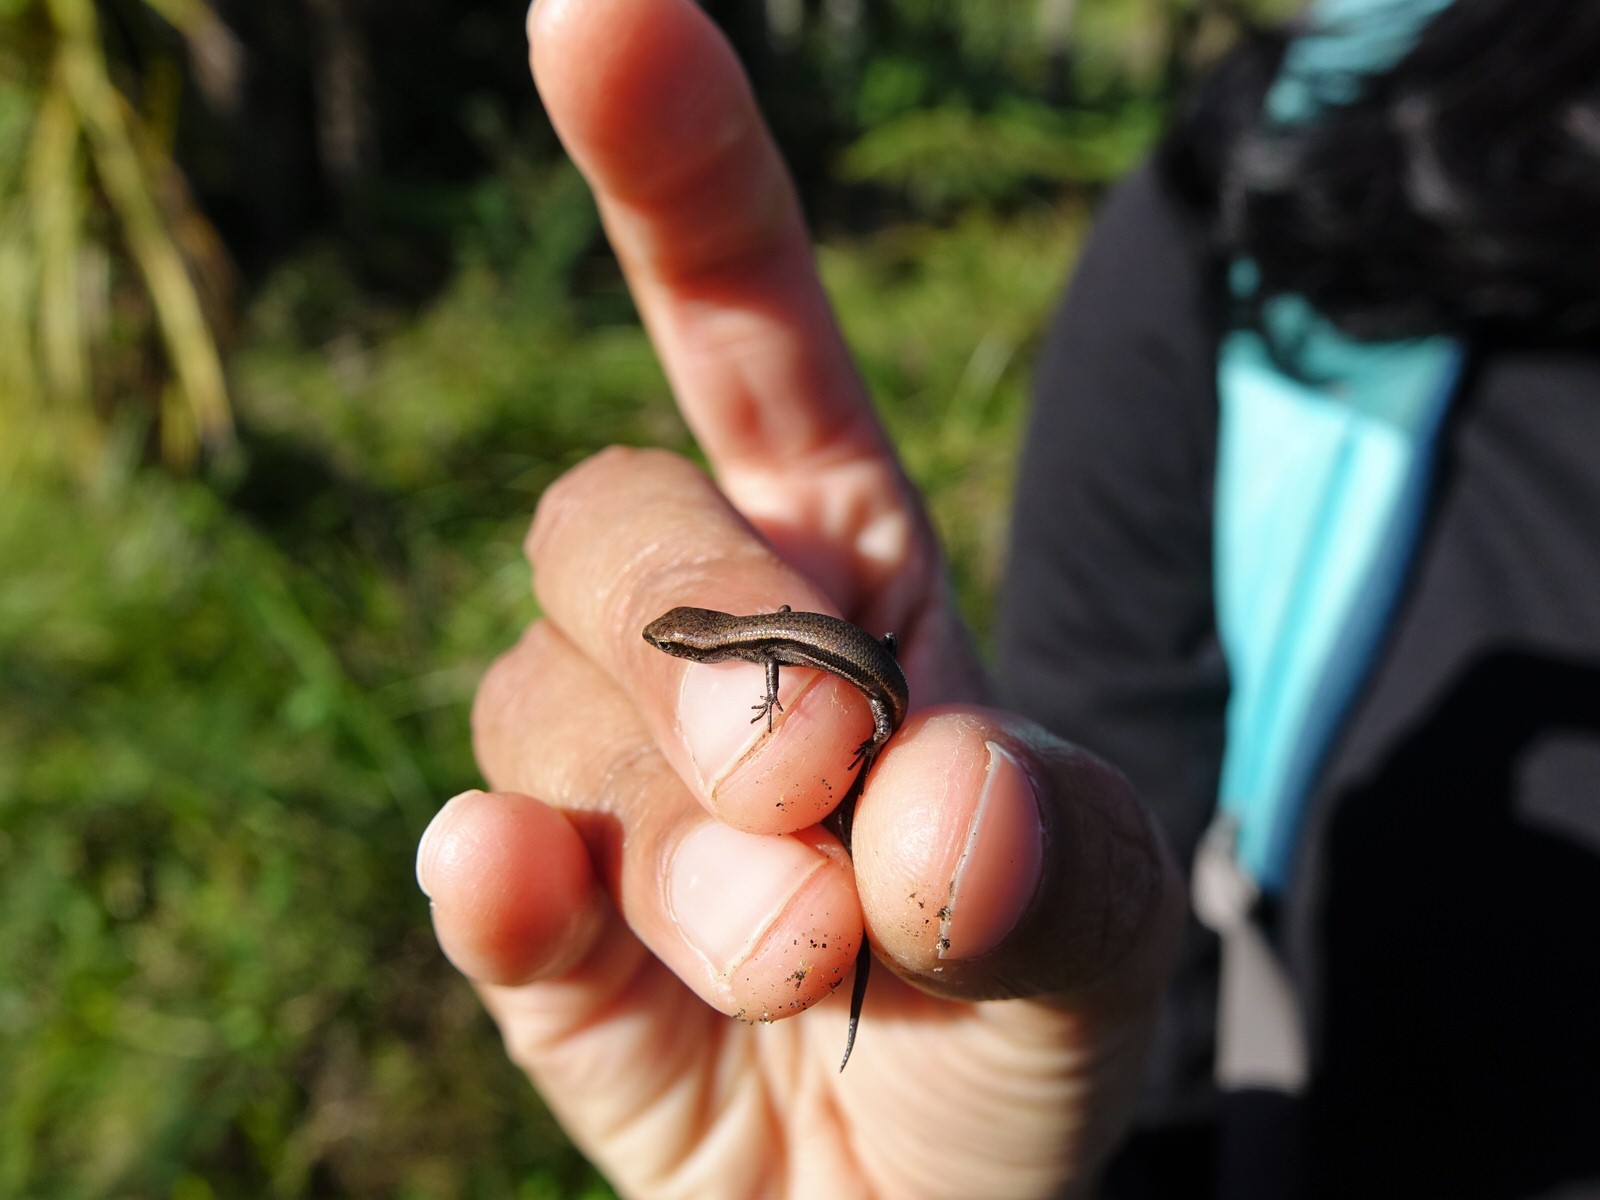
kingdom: Animalia
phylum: Chordata
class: Squamata
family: Scincidae
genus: Lampropholis
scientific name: Lampropholis delicata
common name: Plague skink
